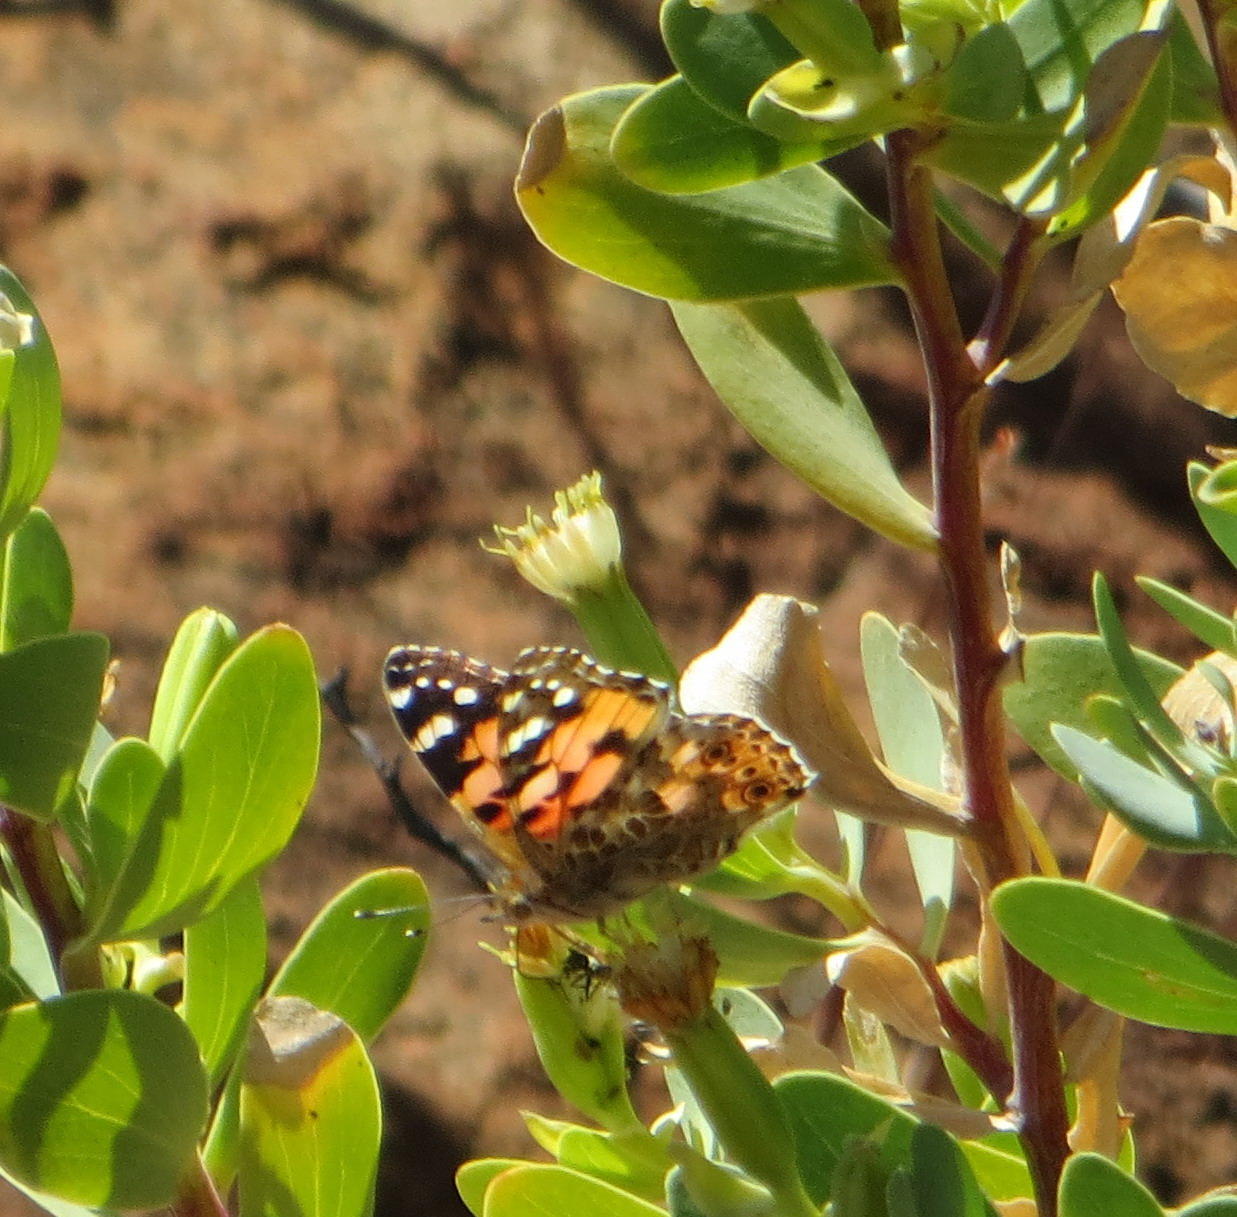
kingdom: Animalia
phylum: Arthropoda
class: Insecta
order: Lepidoptera
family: Nymphalidae
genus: Vanessa
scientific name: Vanessa cardui
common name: Painted lady
